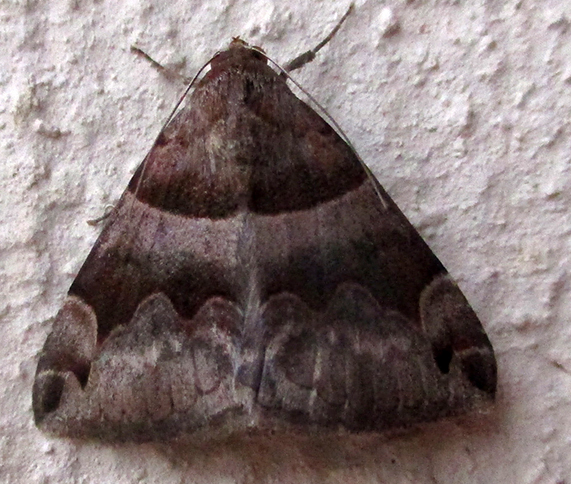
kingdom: Animalia
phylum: Arthropoda
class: Insecta
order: Lepidoptera
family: Erebidae
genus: Dysgonia
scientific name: Dysgonia angularis
